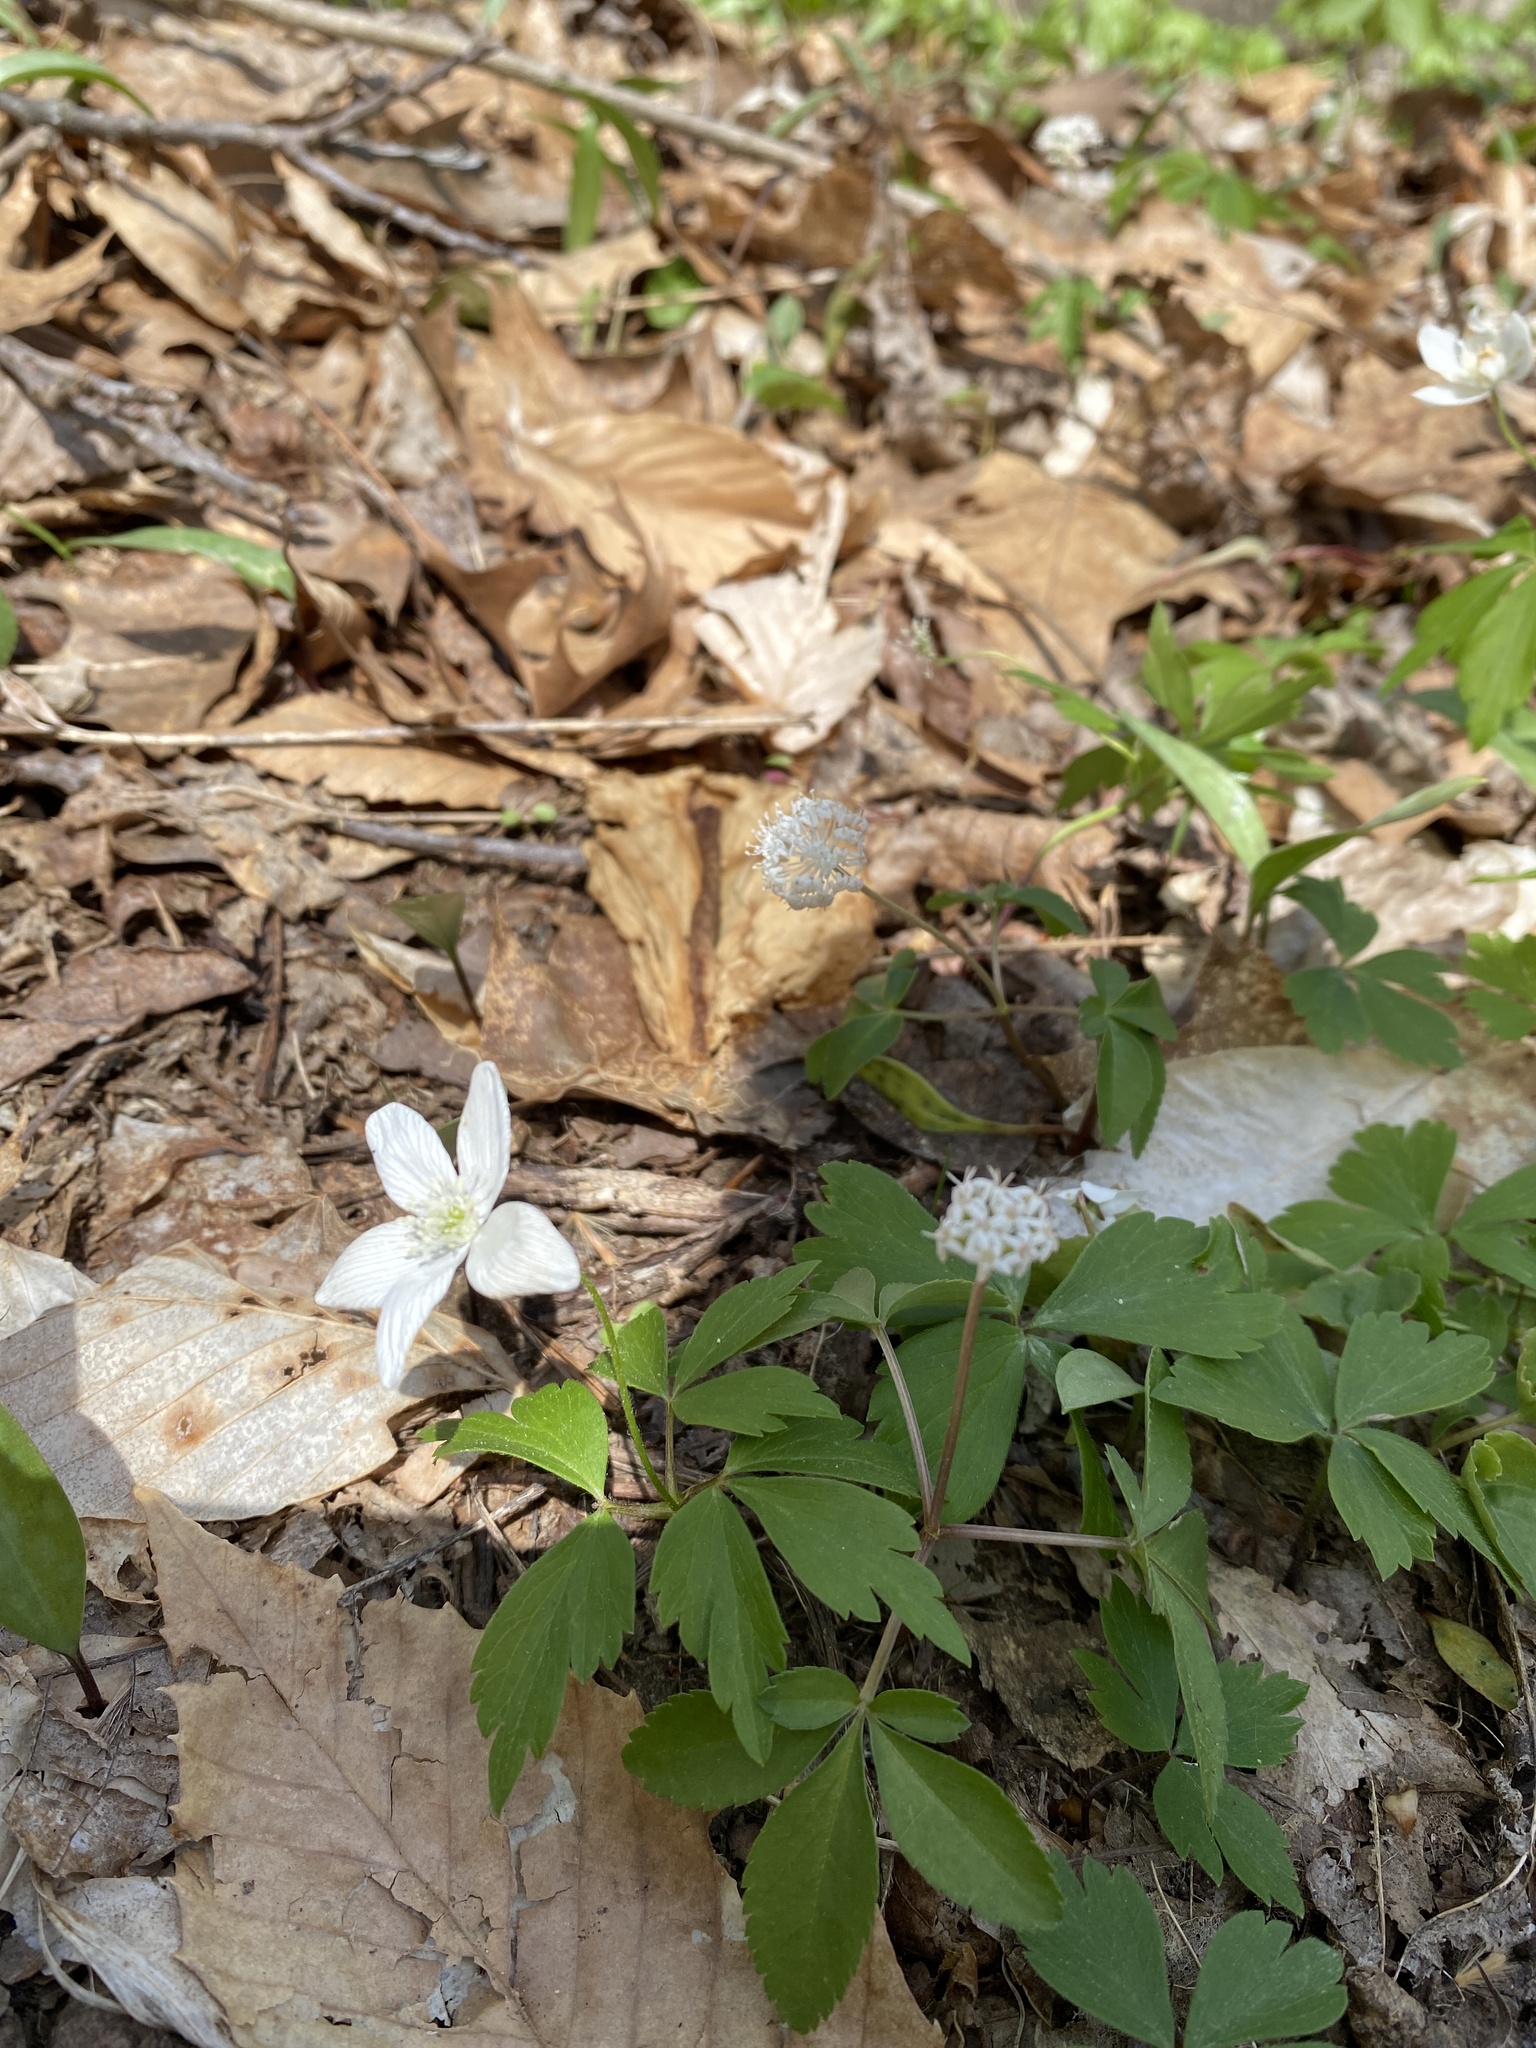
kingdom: Plantae
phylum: Tracheophyta
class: Magnoliopsida
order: Ranunculales
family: Ranunculaceae
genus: Anemone
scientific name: Anemone quinquefolia
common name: Wood anemone
